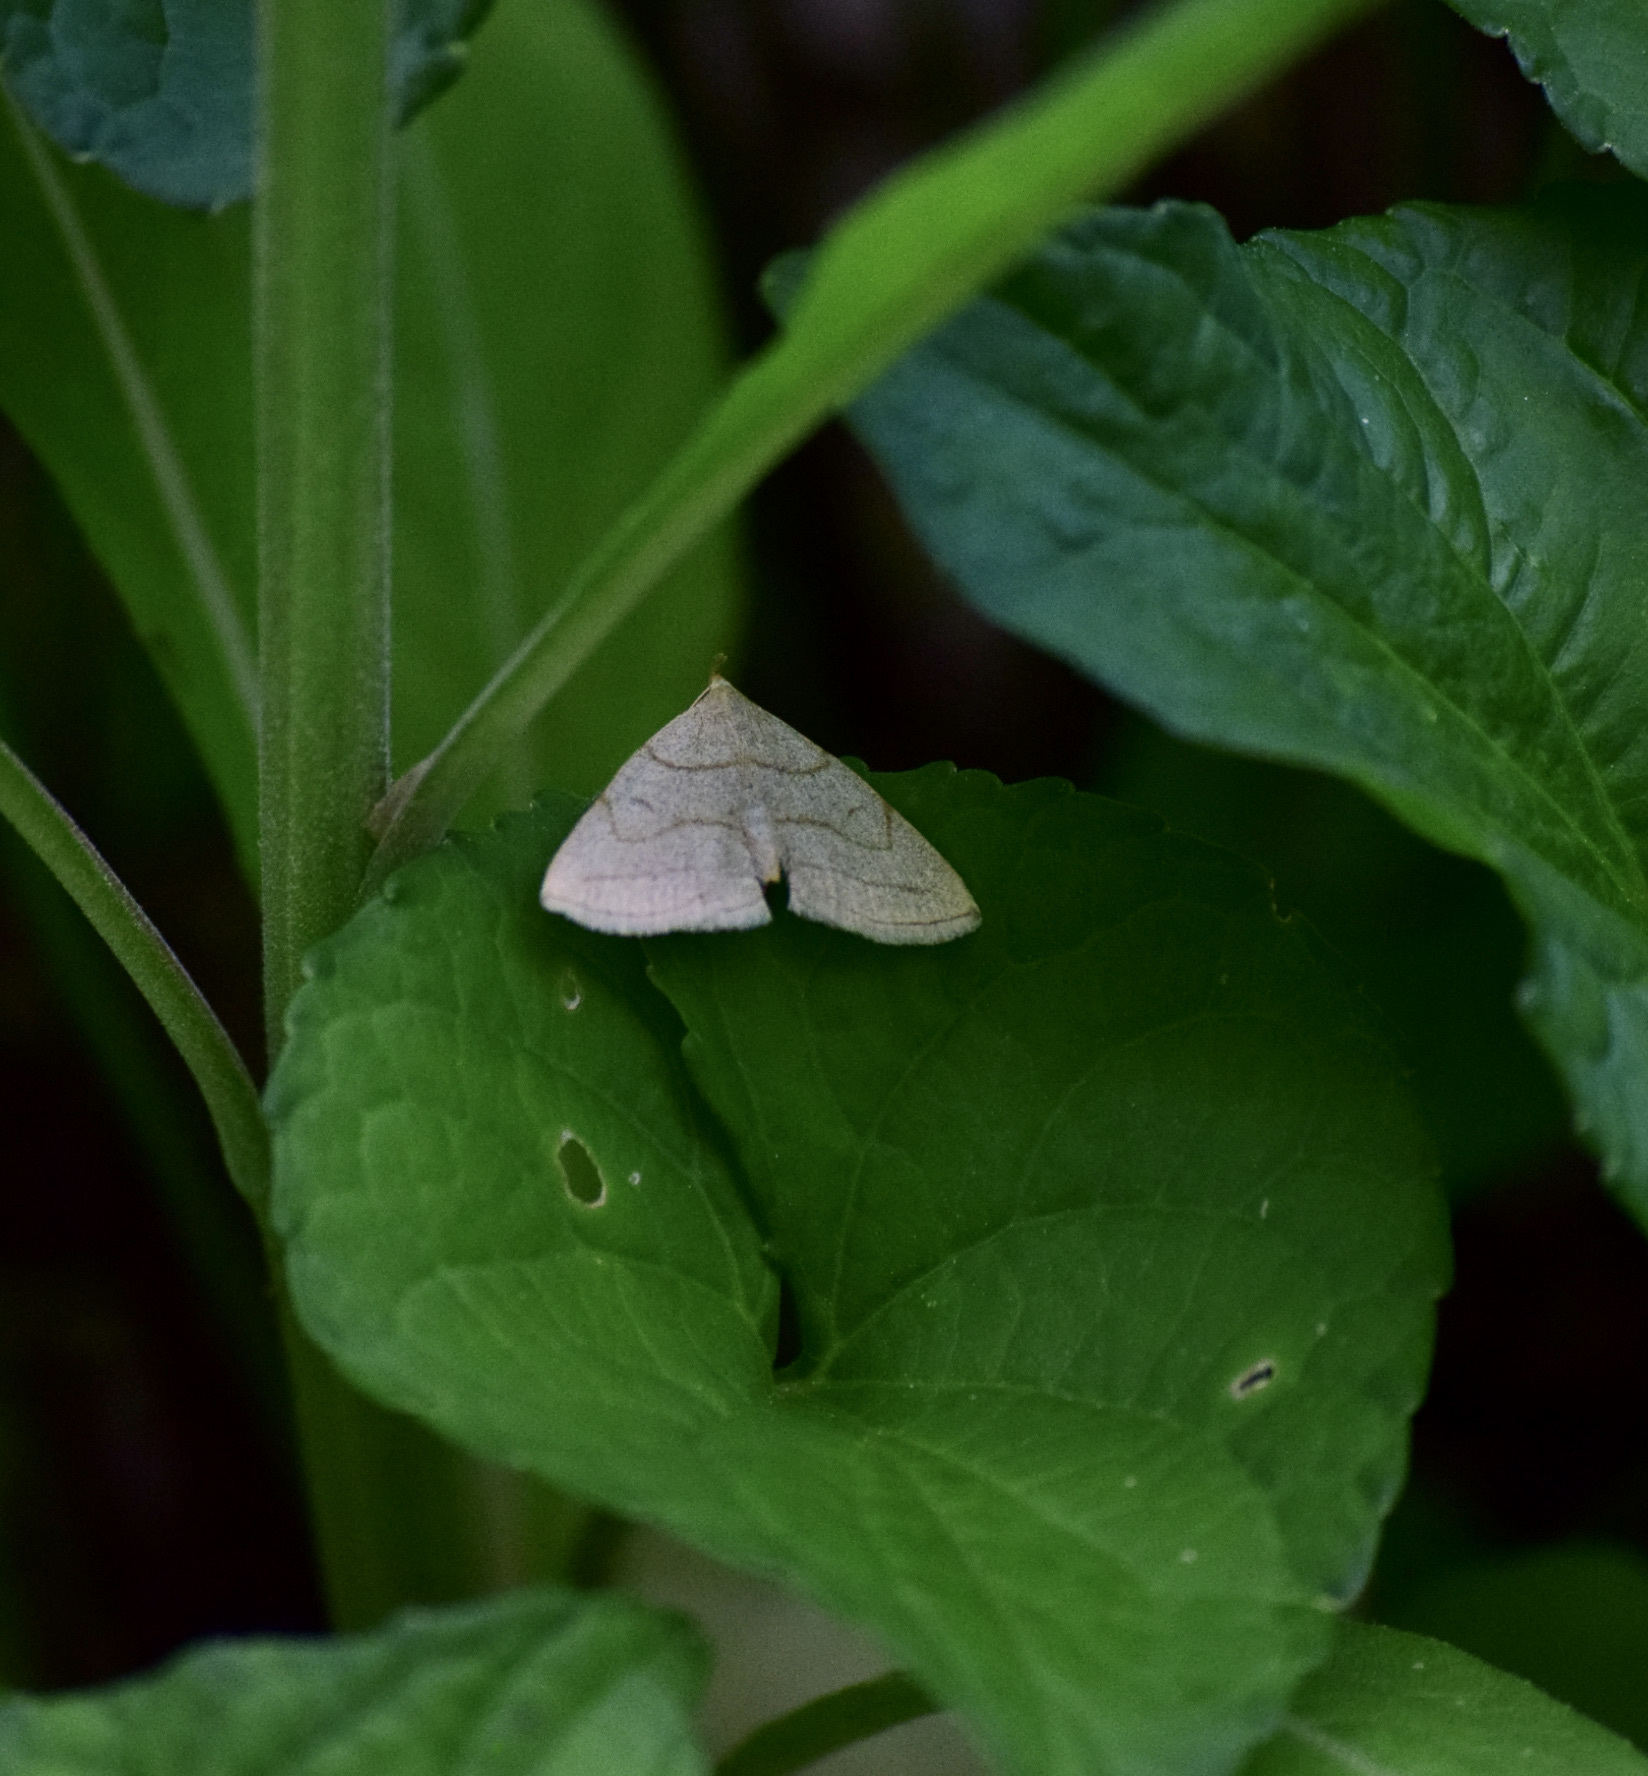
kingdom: Animalia
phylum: Arthropoda
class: Insecta
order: Lepidoptera
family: Erebidae
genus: Zanclognatha
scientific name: Zanclognatha pedipilalis
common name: Grayish fan-foot
